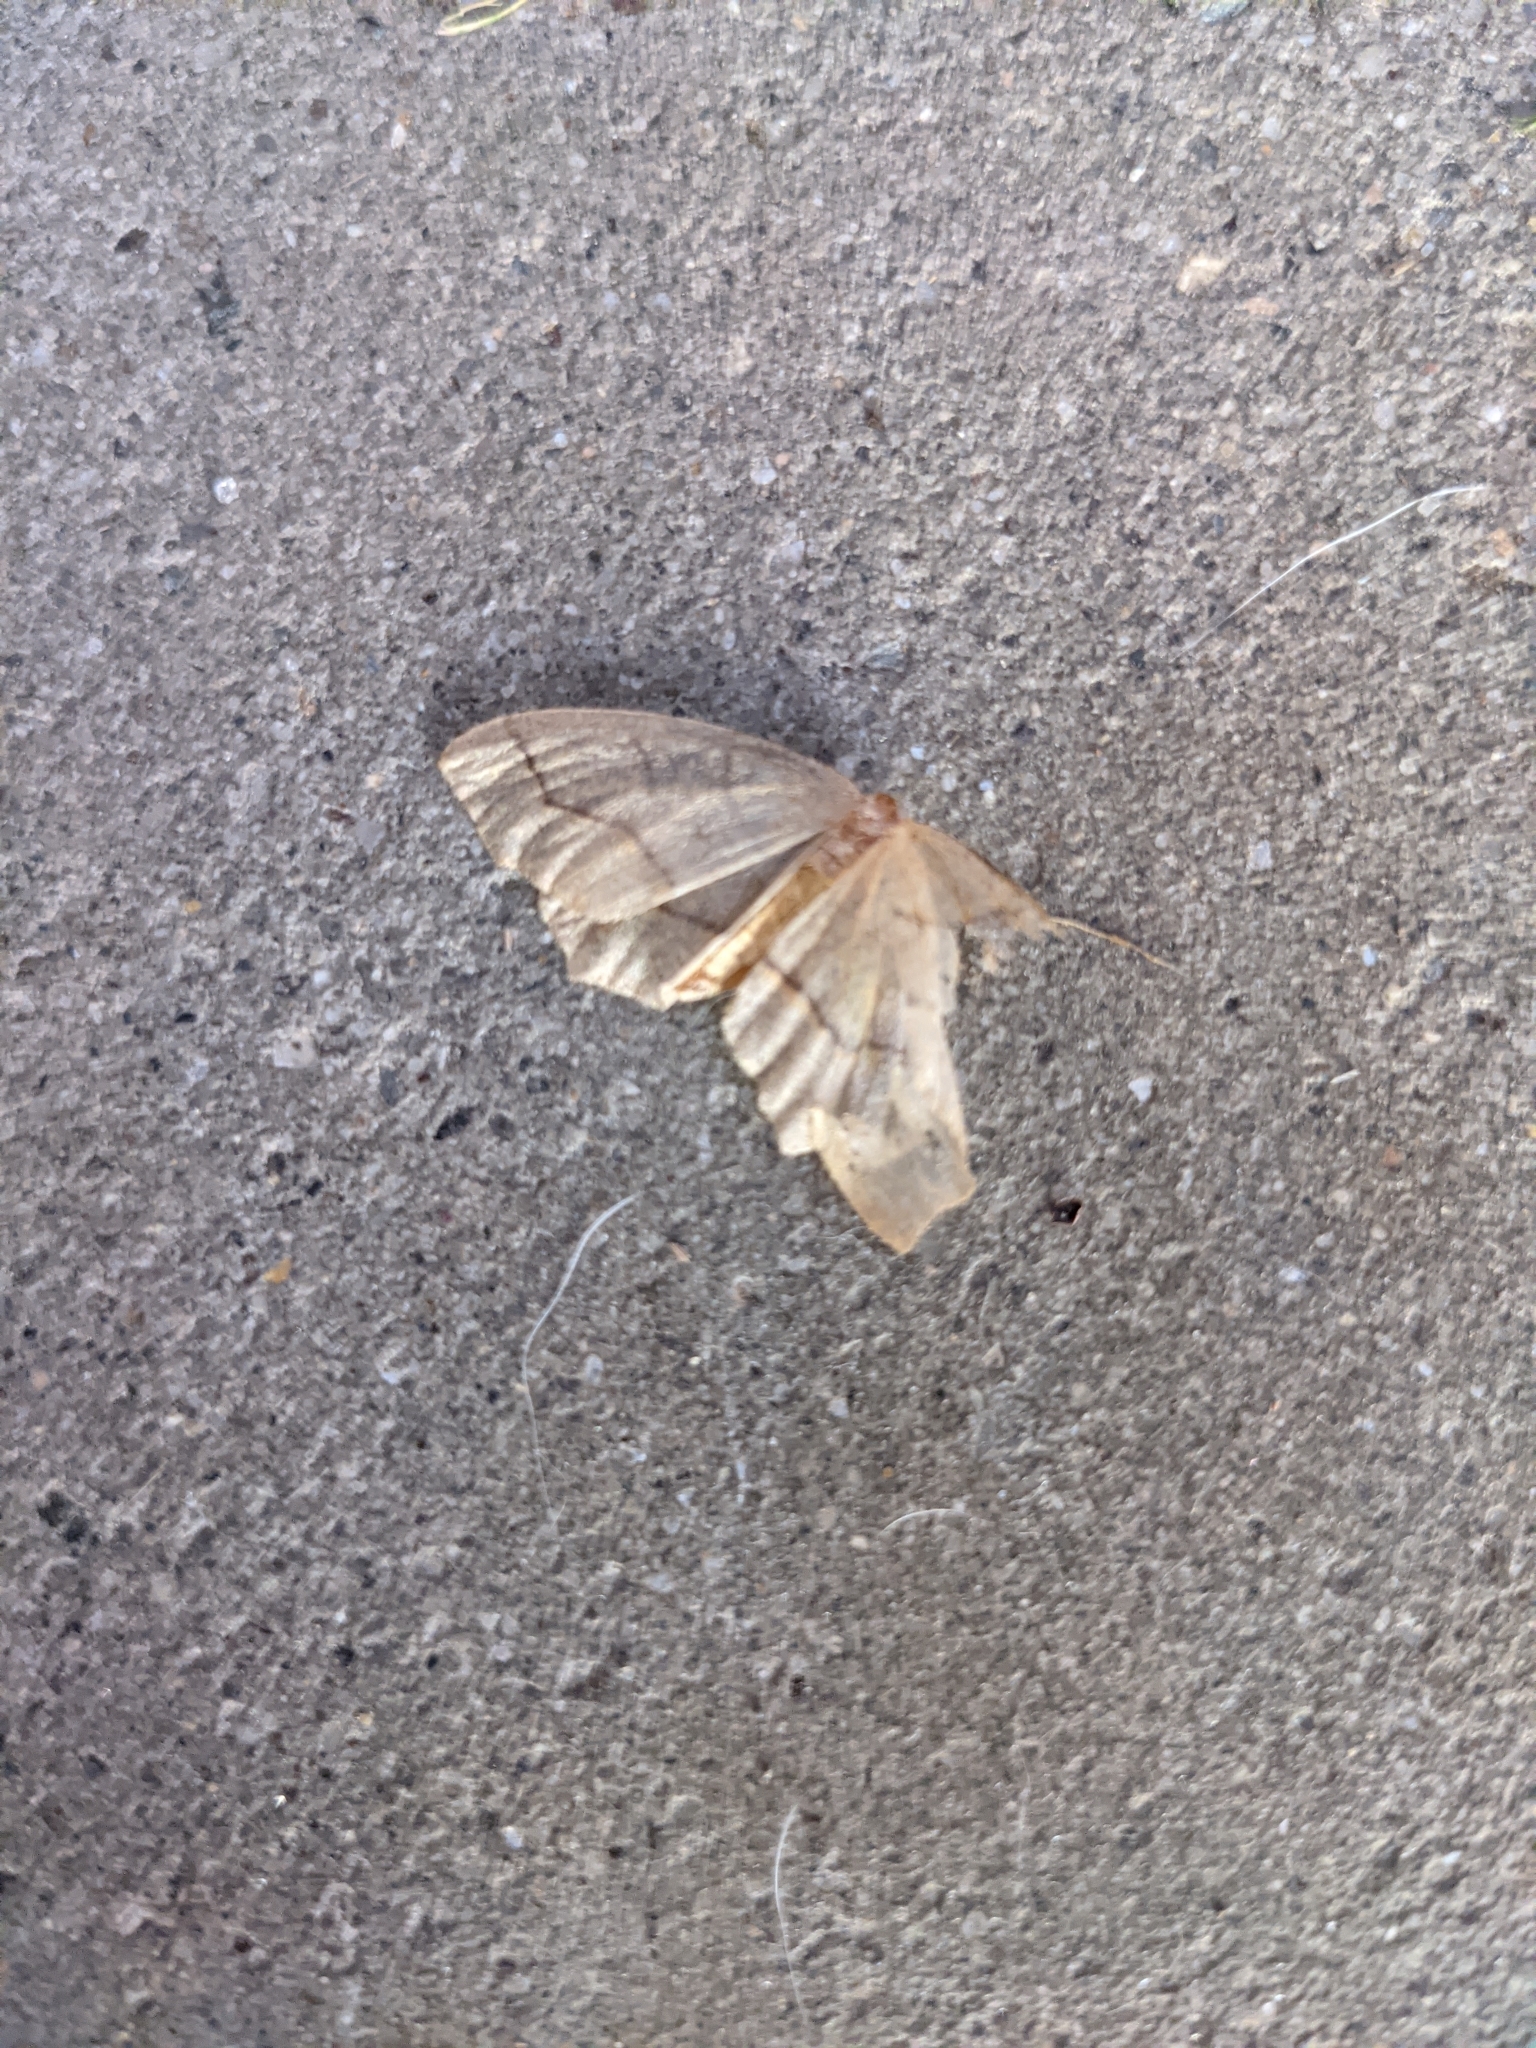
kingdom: Animalia
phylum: Arthropoda
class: Insecta
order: Lepidoptera
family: Geometridae
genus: Lambdina
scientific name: Lambdina fiscellaria
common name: Hemlock looper
